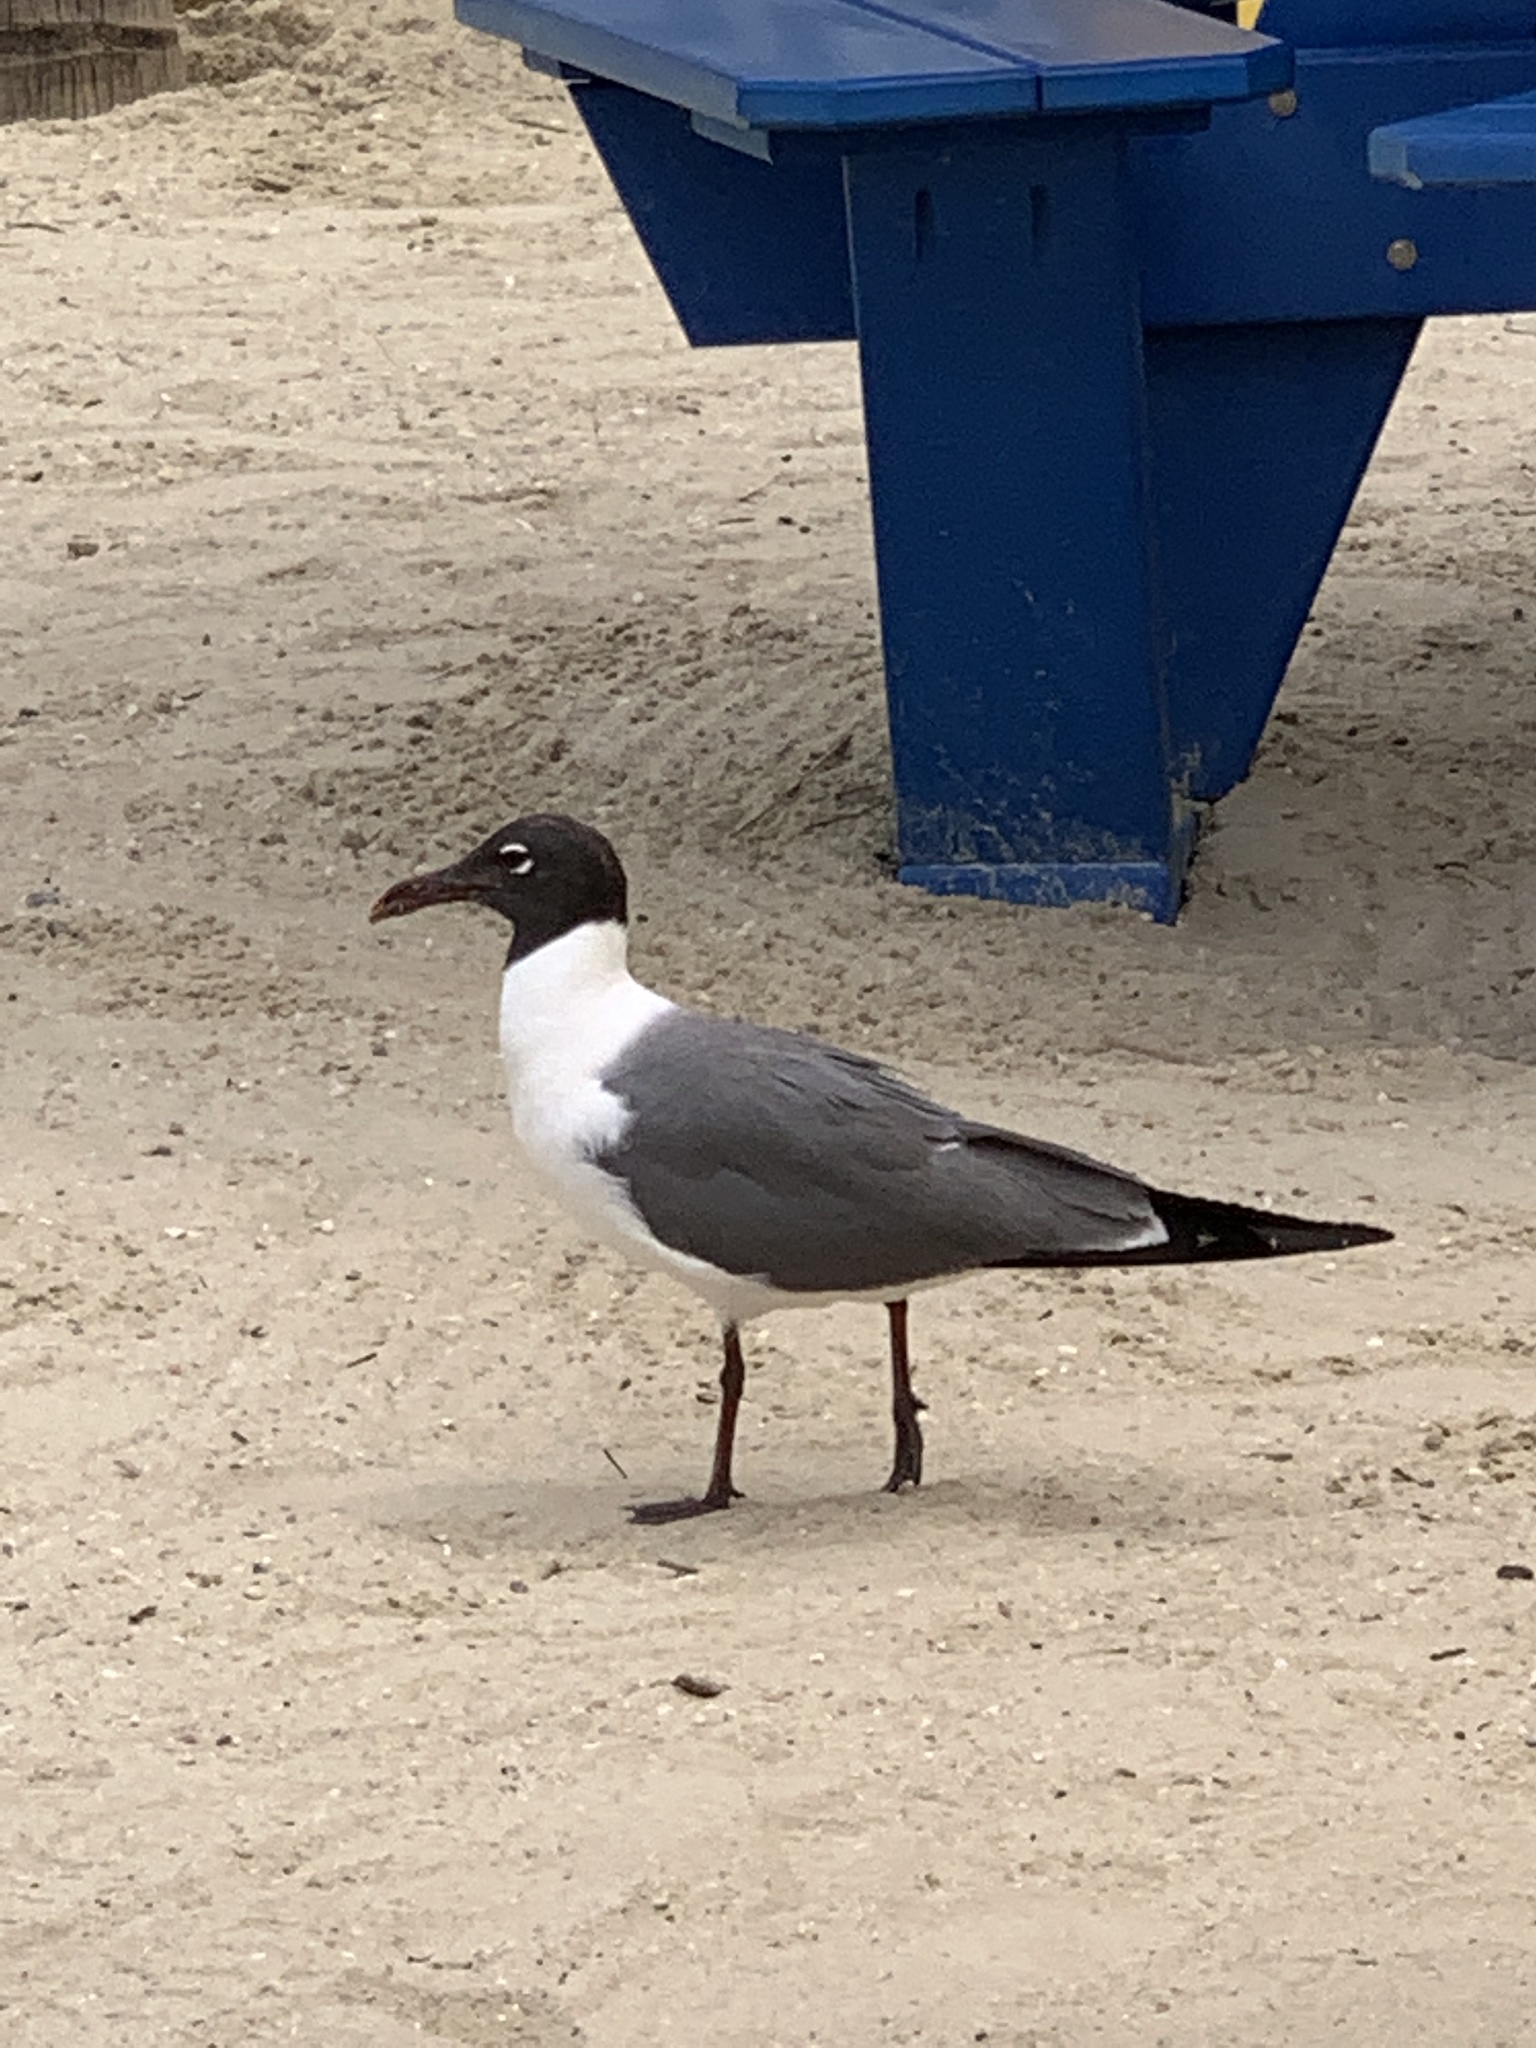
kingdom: Animalia
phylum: Chordata
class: Aves
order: Charadriiformes
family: Laridae
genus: Leucophaeus
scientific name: Leucophaeus atricilla
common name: Laughing gull
